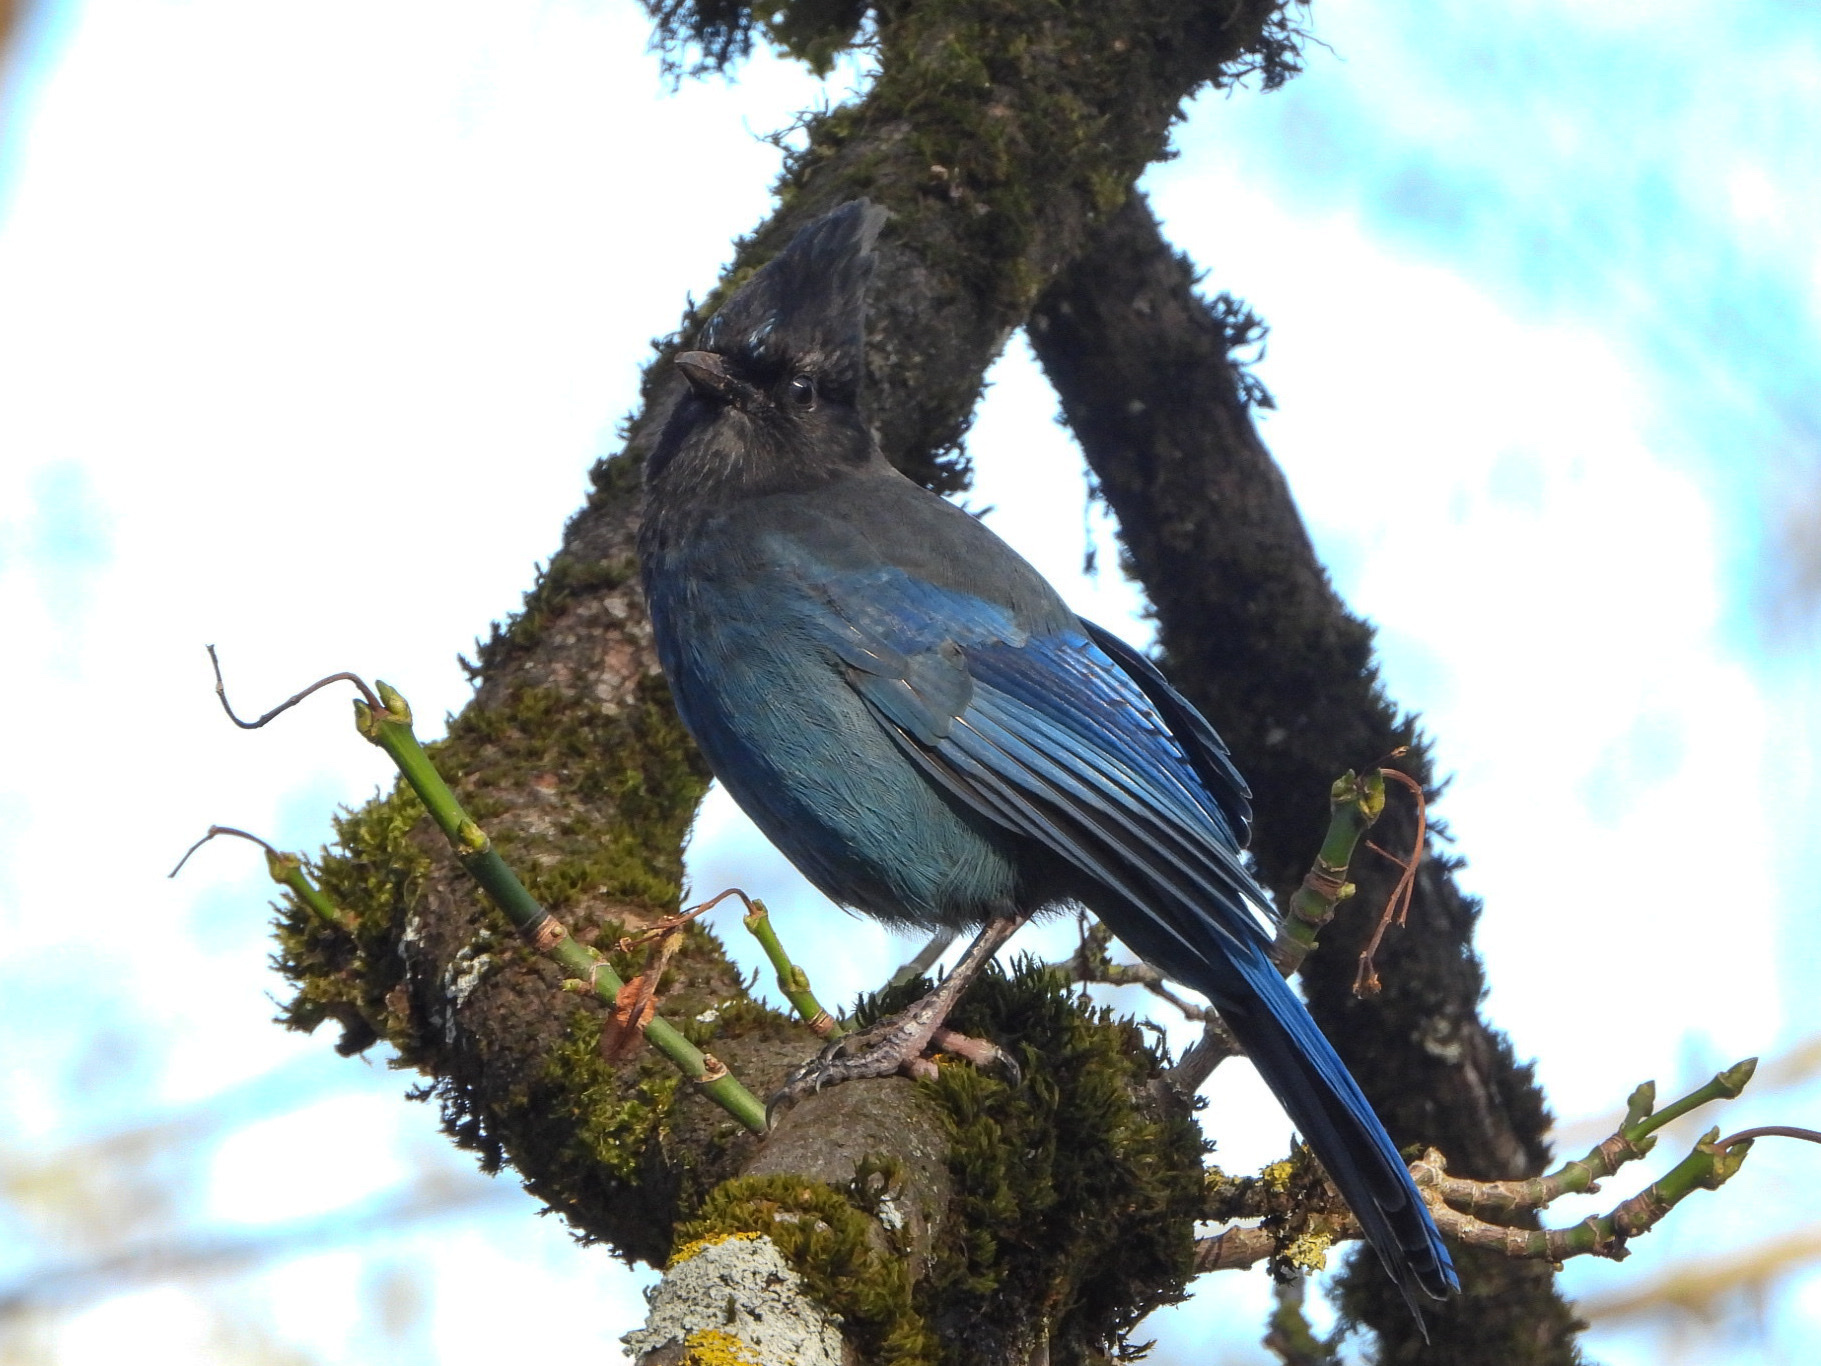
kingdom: Animalia
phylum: Chordata
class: Aves
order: Passeriformes
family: Corvidae
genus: Cyanocitta
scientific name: Cyanocitta stelleri
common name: Steller's jay
